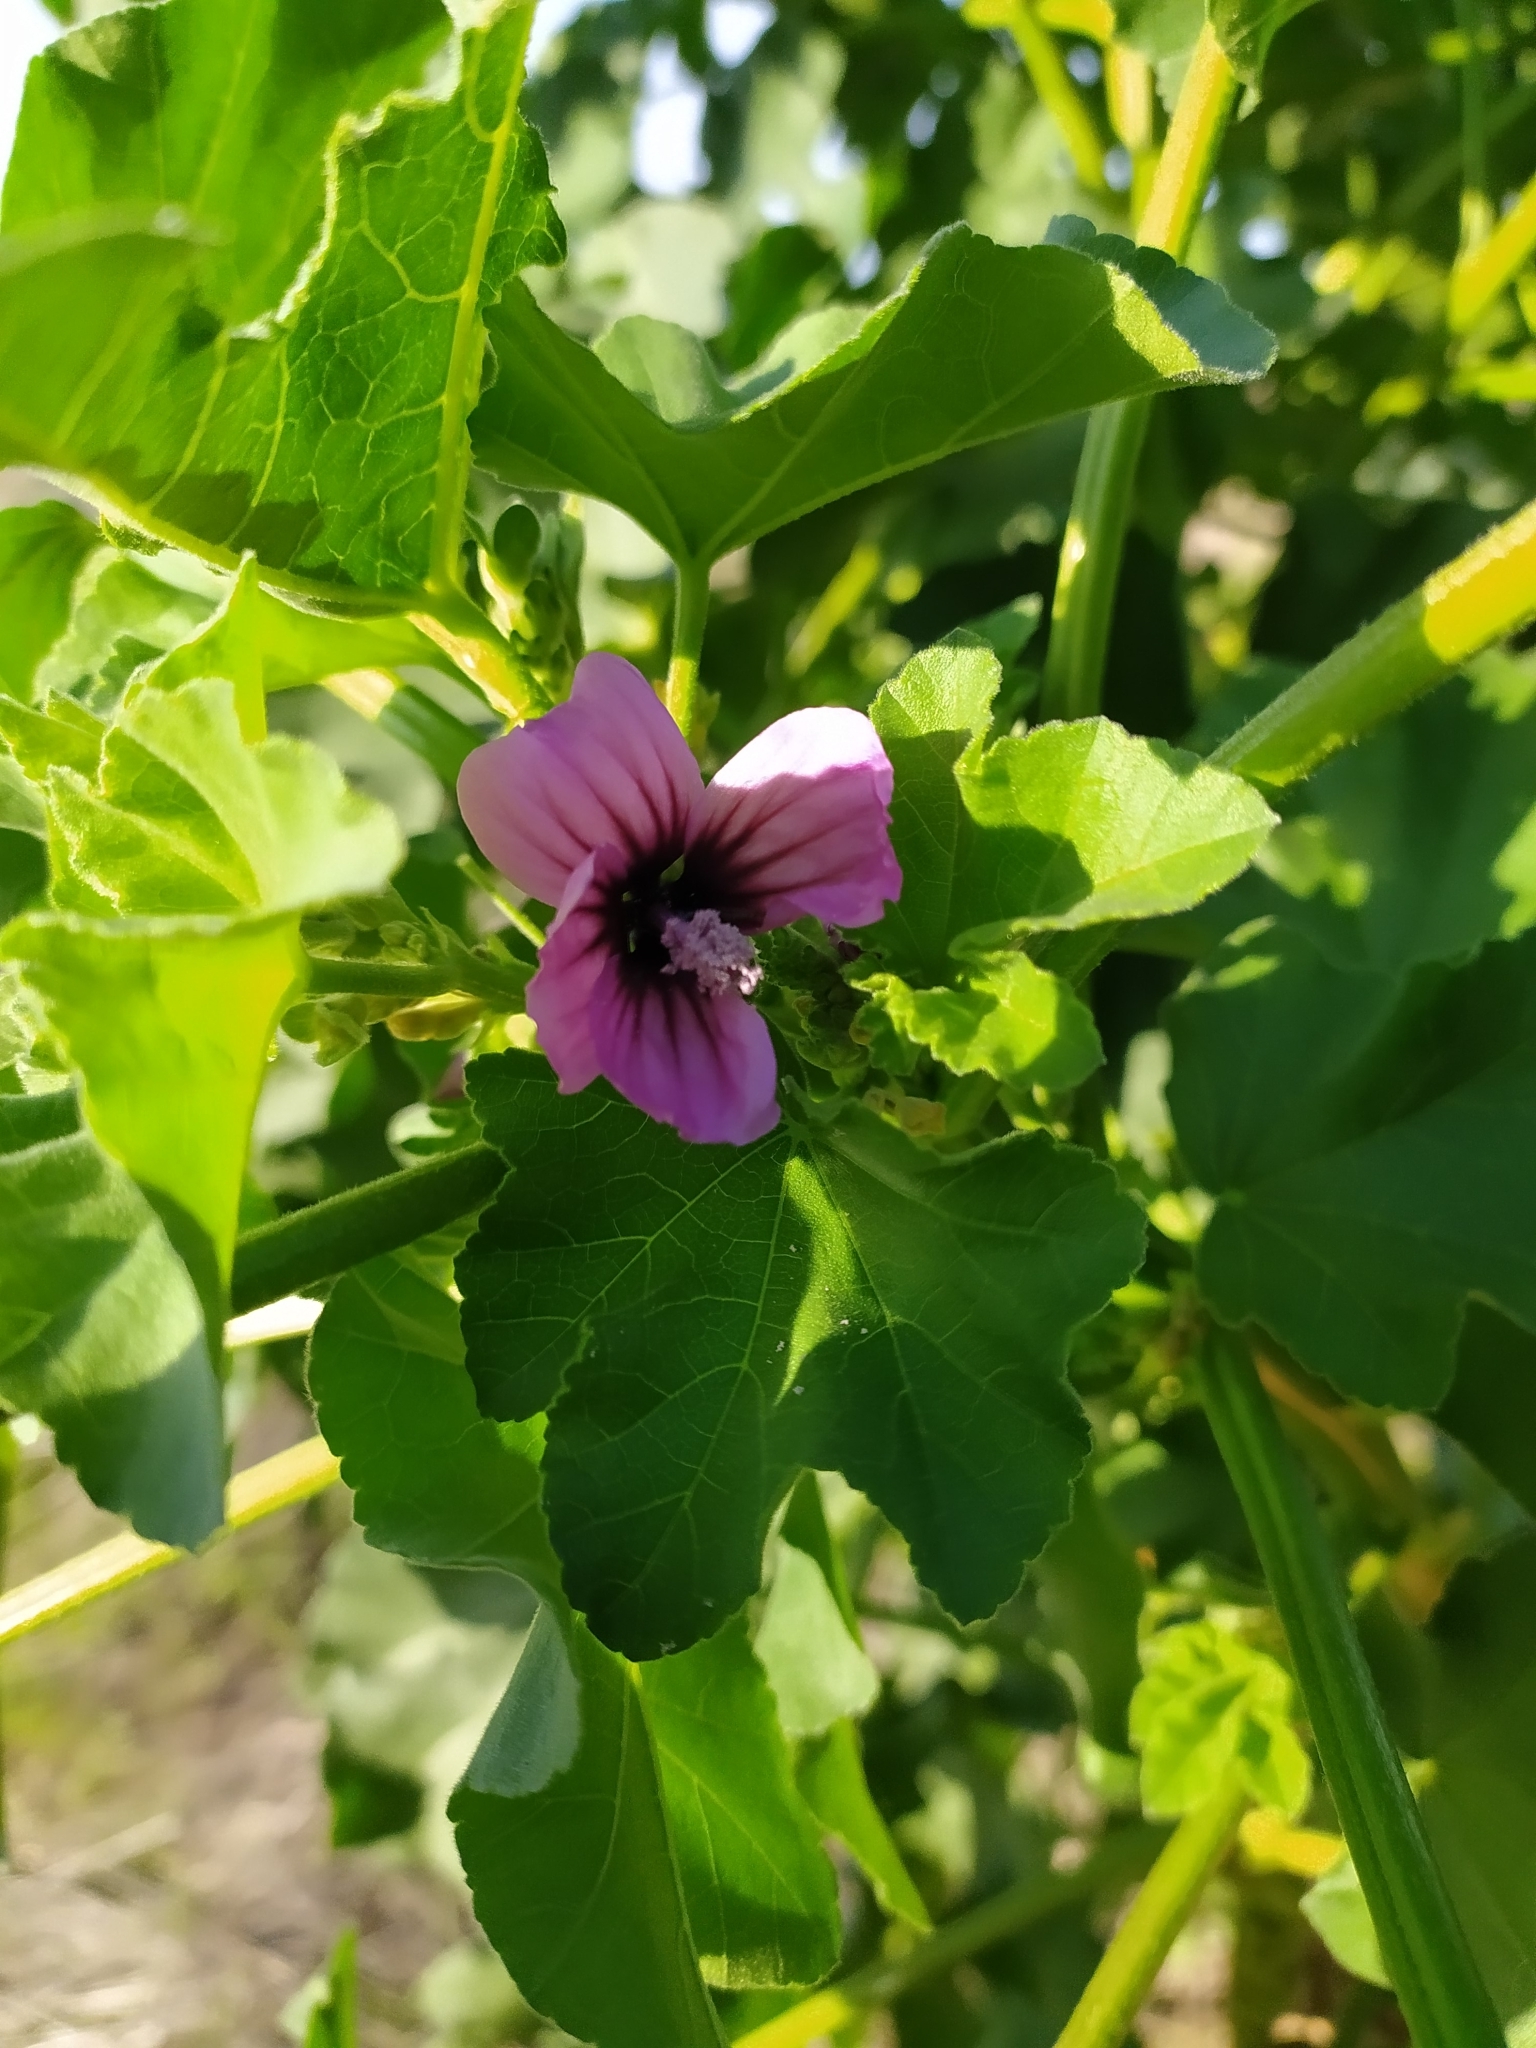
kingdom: Plantae
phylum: Tracheophyta
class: Magnoliopsida
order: Malvales
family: Malvaceae
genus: Malva
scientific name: Malva arborea
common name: Tree mallow
